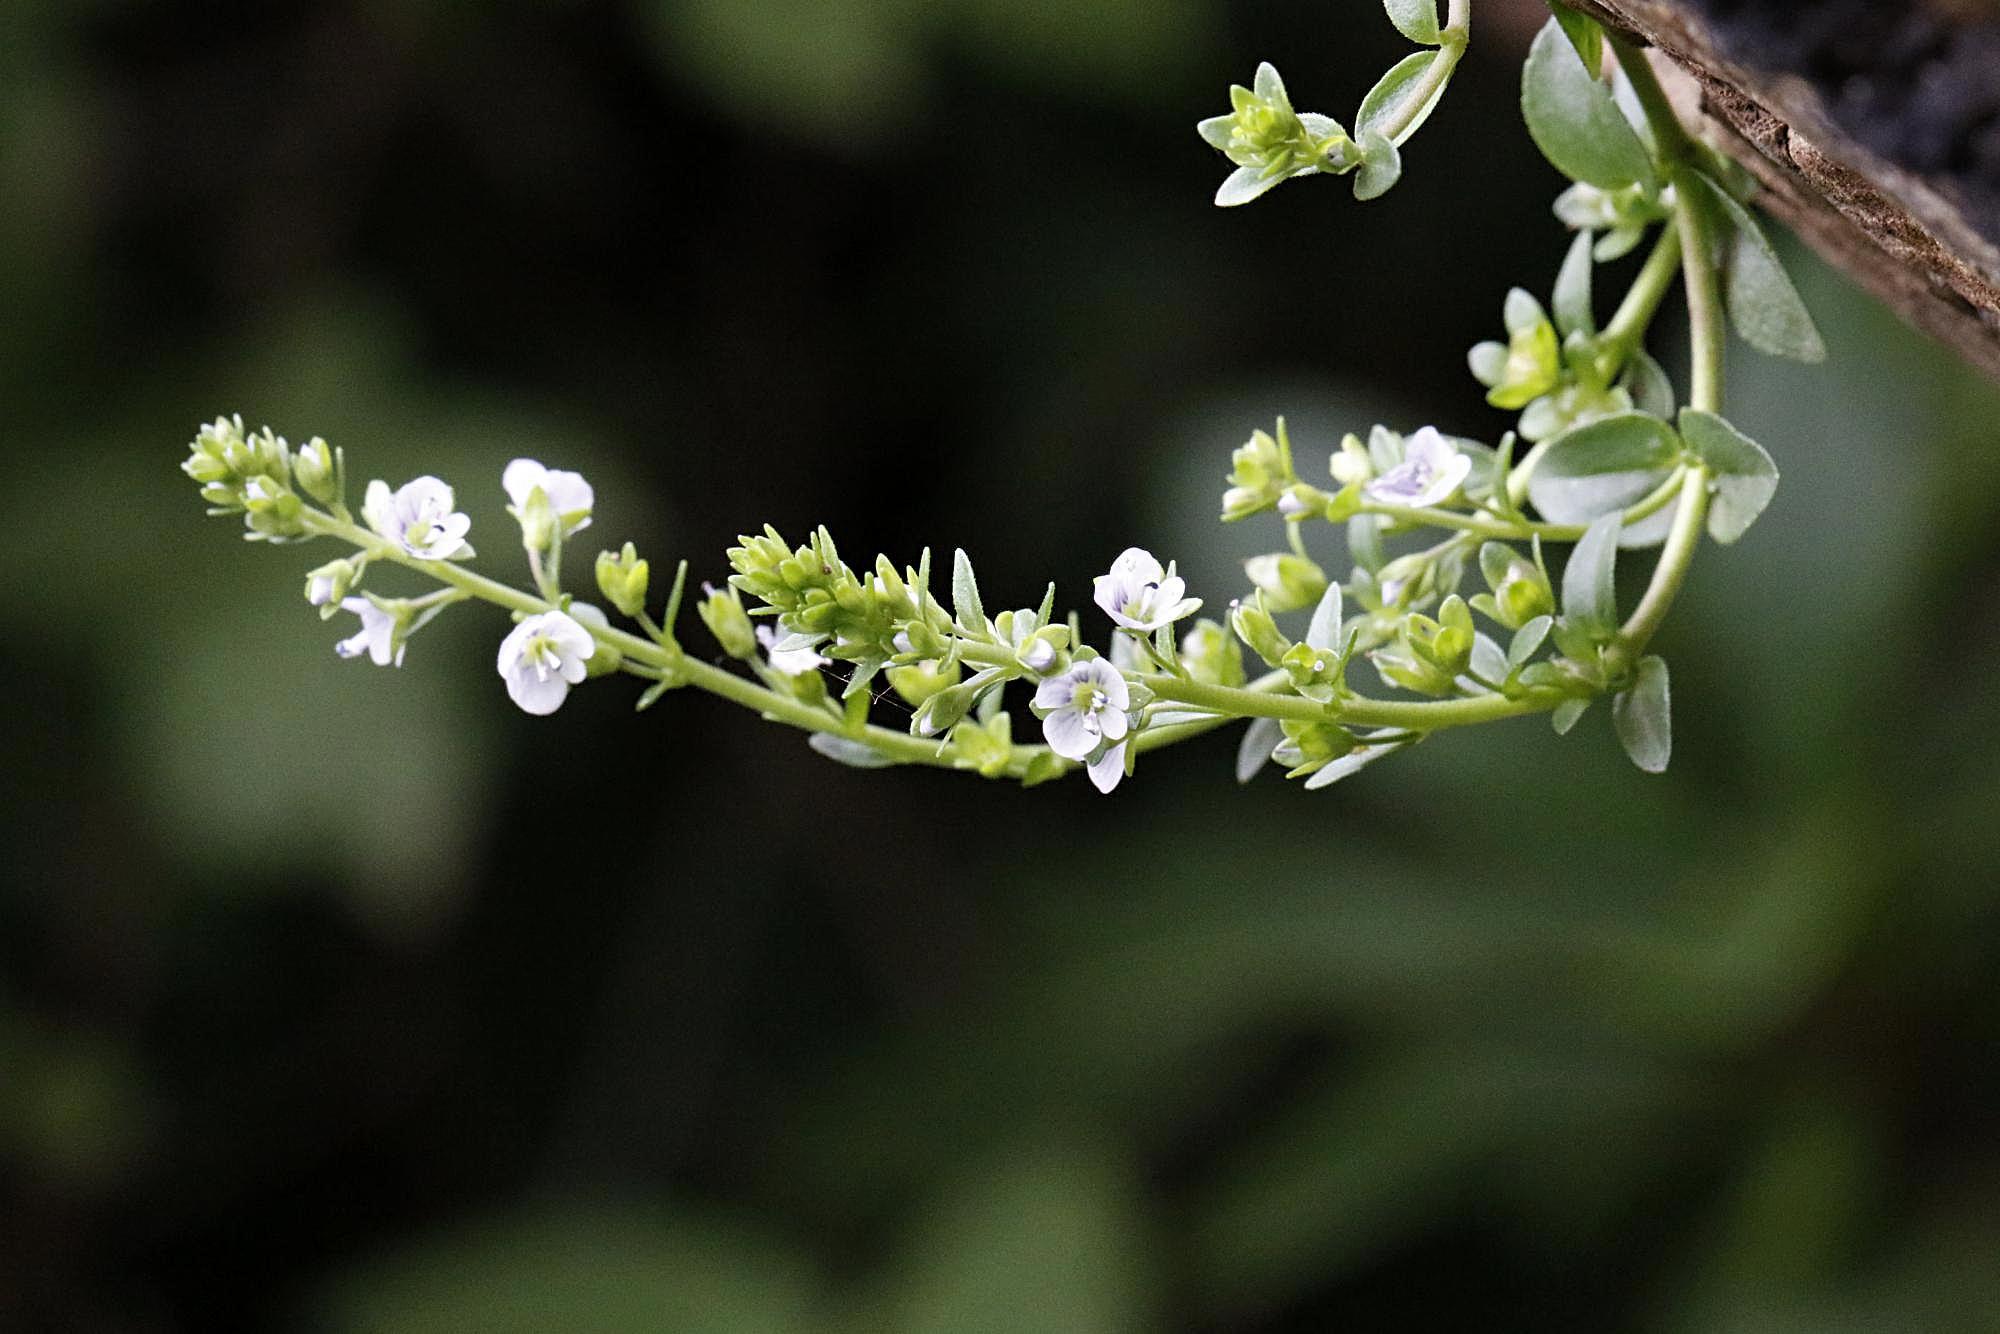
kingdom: Plantae
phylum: Tracheophyta
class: Magnoliopsida
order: Lamiales
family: Plantaginaceae
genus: Veronica
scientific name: Veronica serpyllifolia
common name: Thyme-leaved speedwell
